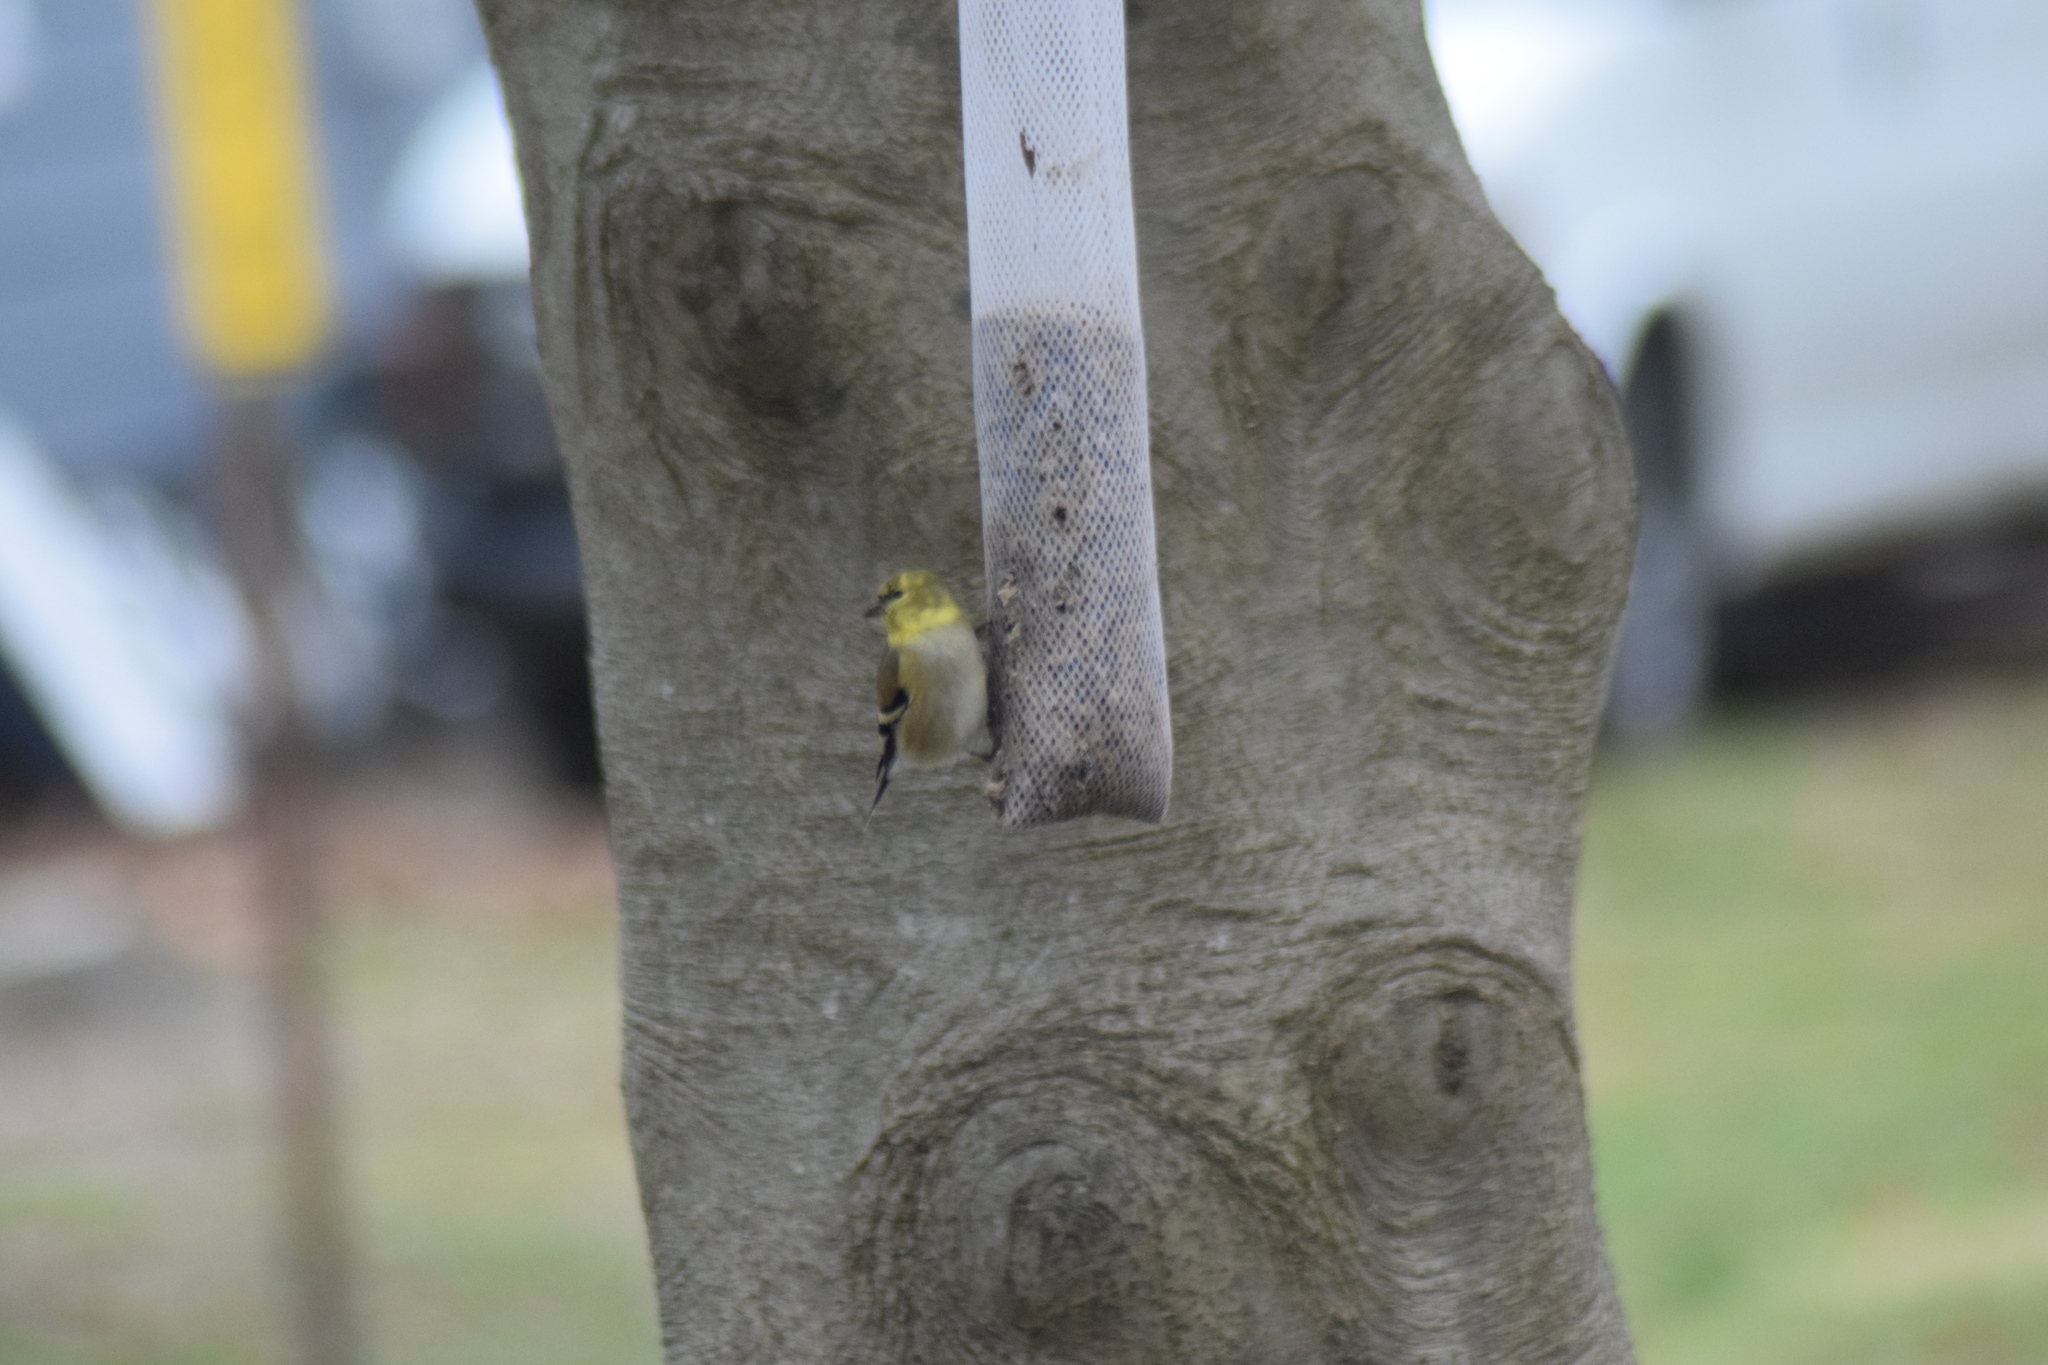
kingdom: Animalia
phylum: Chordata
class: Aves
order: Passeriformes
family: Fringillidae
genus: Spinus
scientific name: Spinus tristis
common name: American goldfinch
